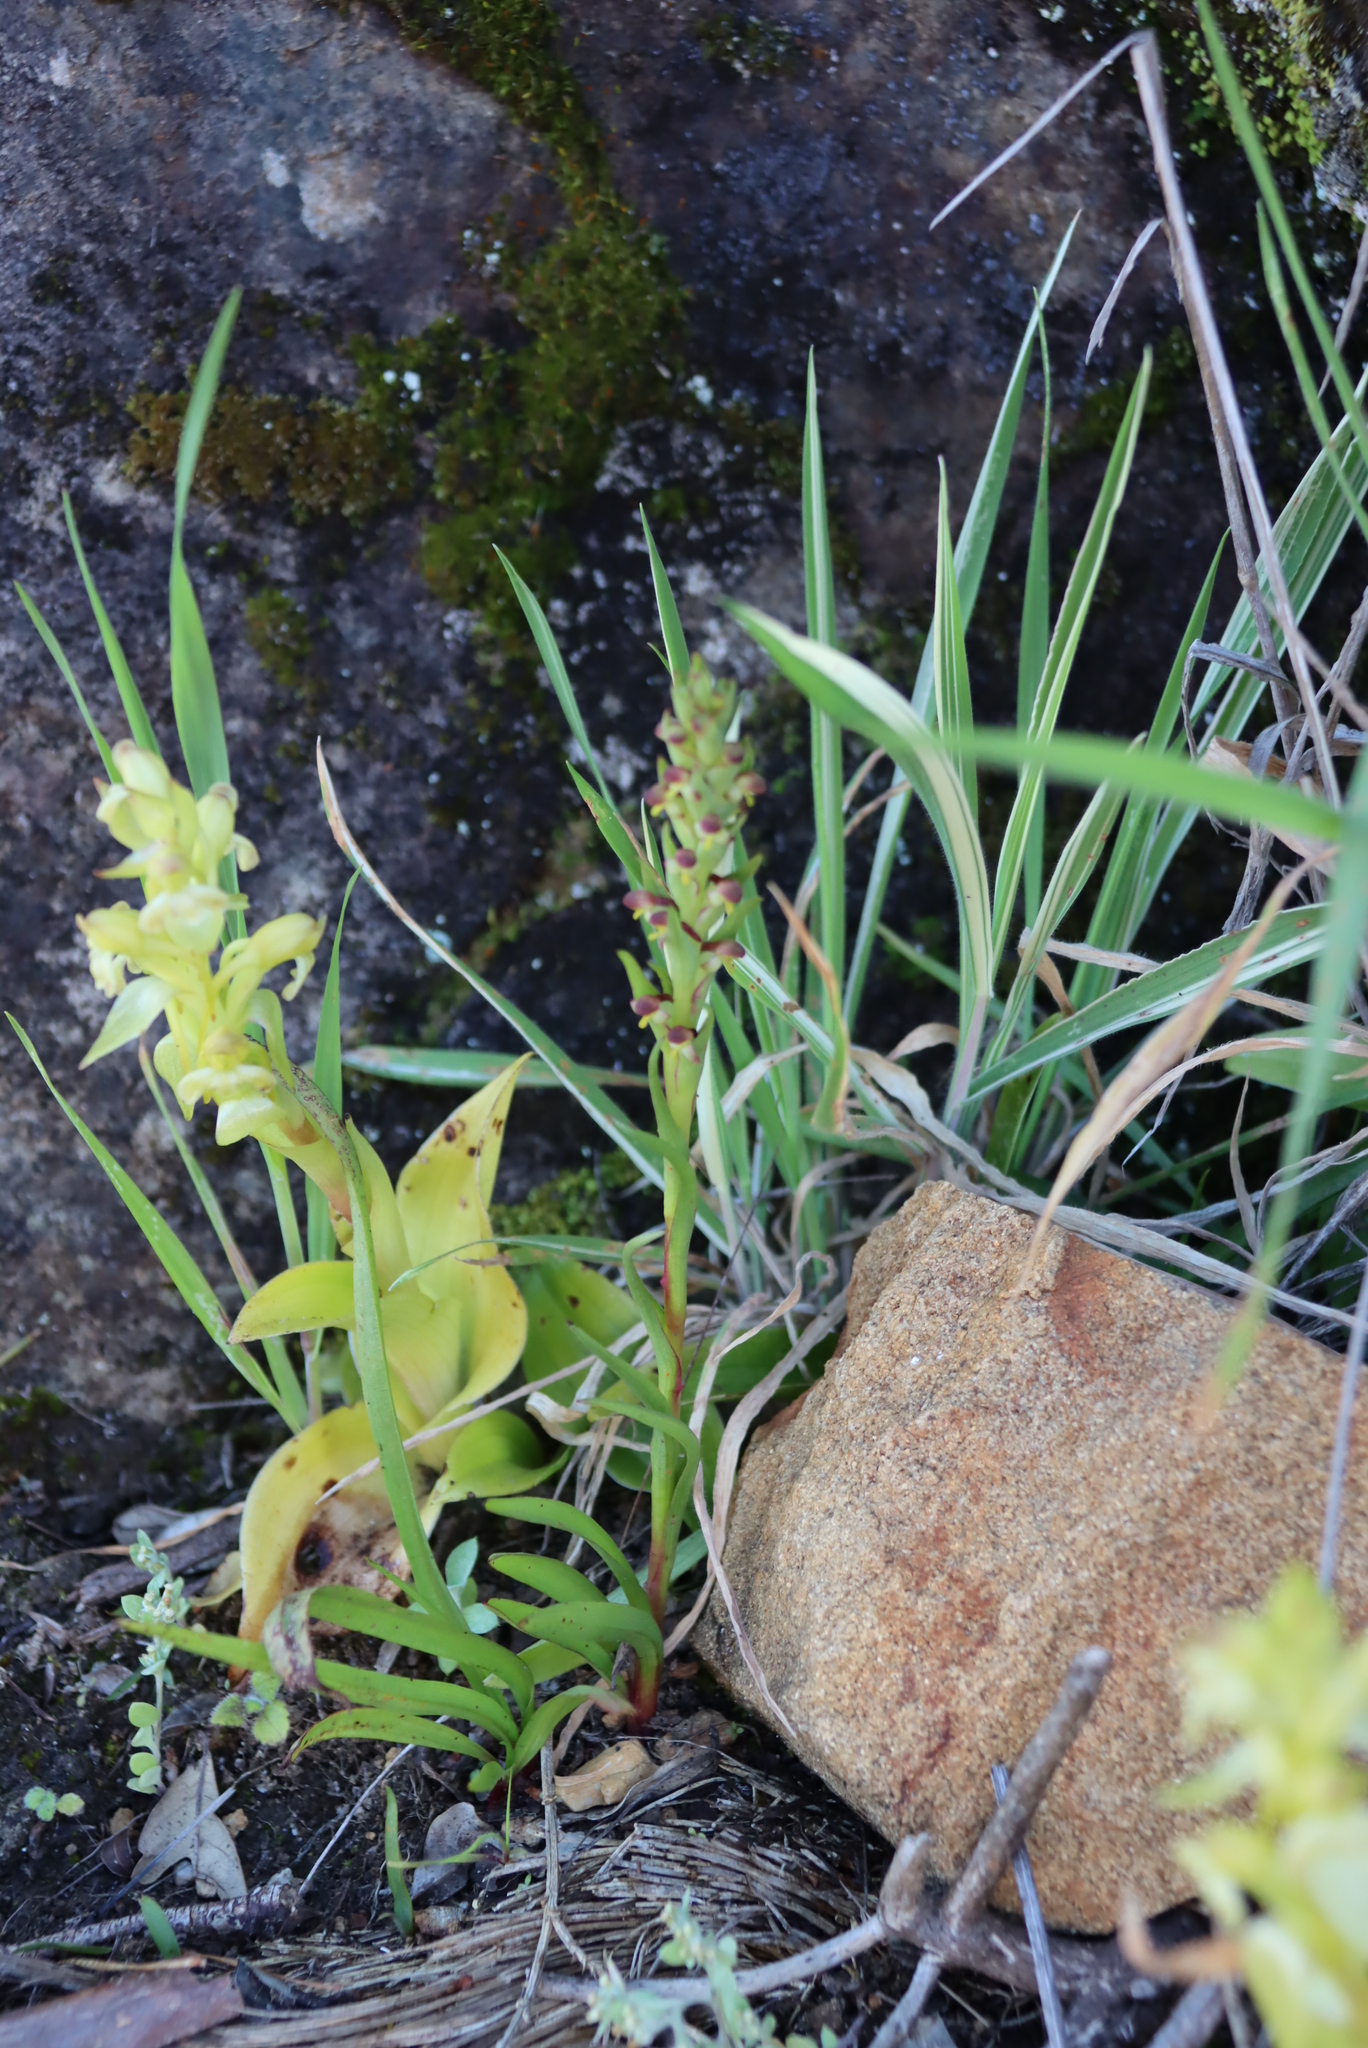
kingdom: Plantae
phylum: Tracheophyta
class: Liliopsida
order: Asparagales
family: Orchidaceae
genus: Disa
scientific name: Disa bracteata
